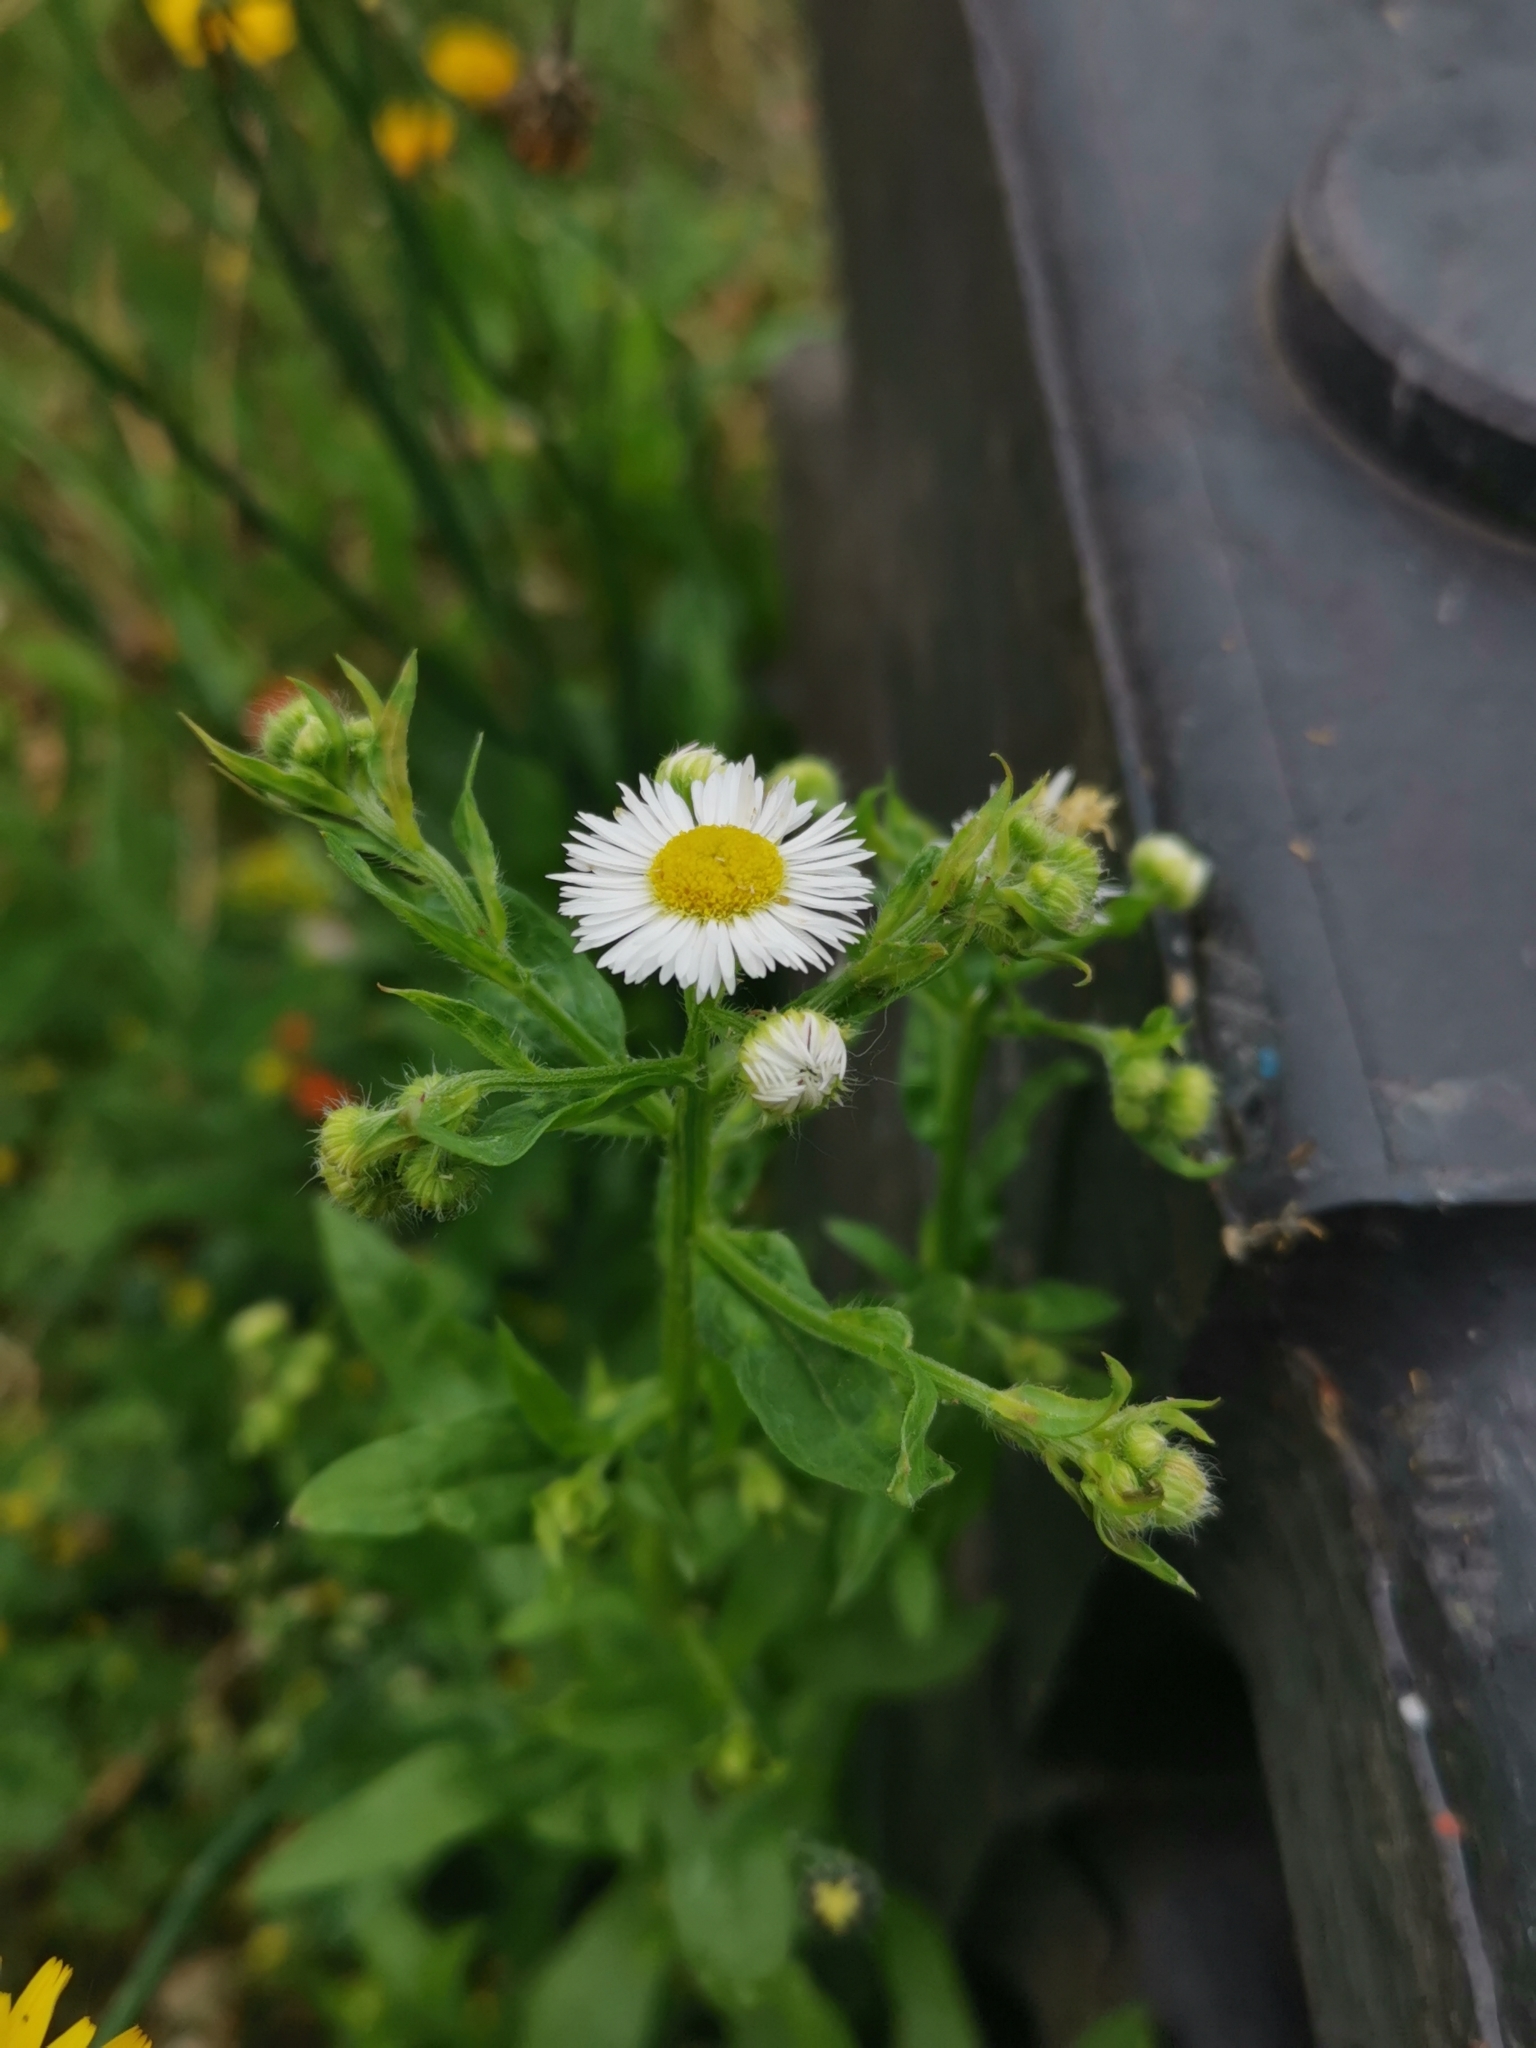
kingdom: Plantae
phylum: Tracheophyta
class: Magnoliopsida
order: Asterales
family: Asteraceae
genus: Erigeron
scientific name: Erigeron annuus
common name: Tall fleabane
